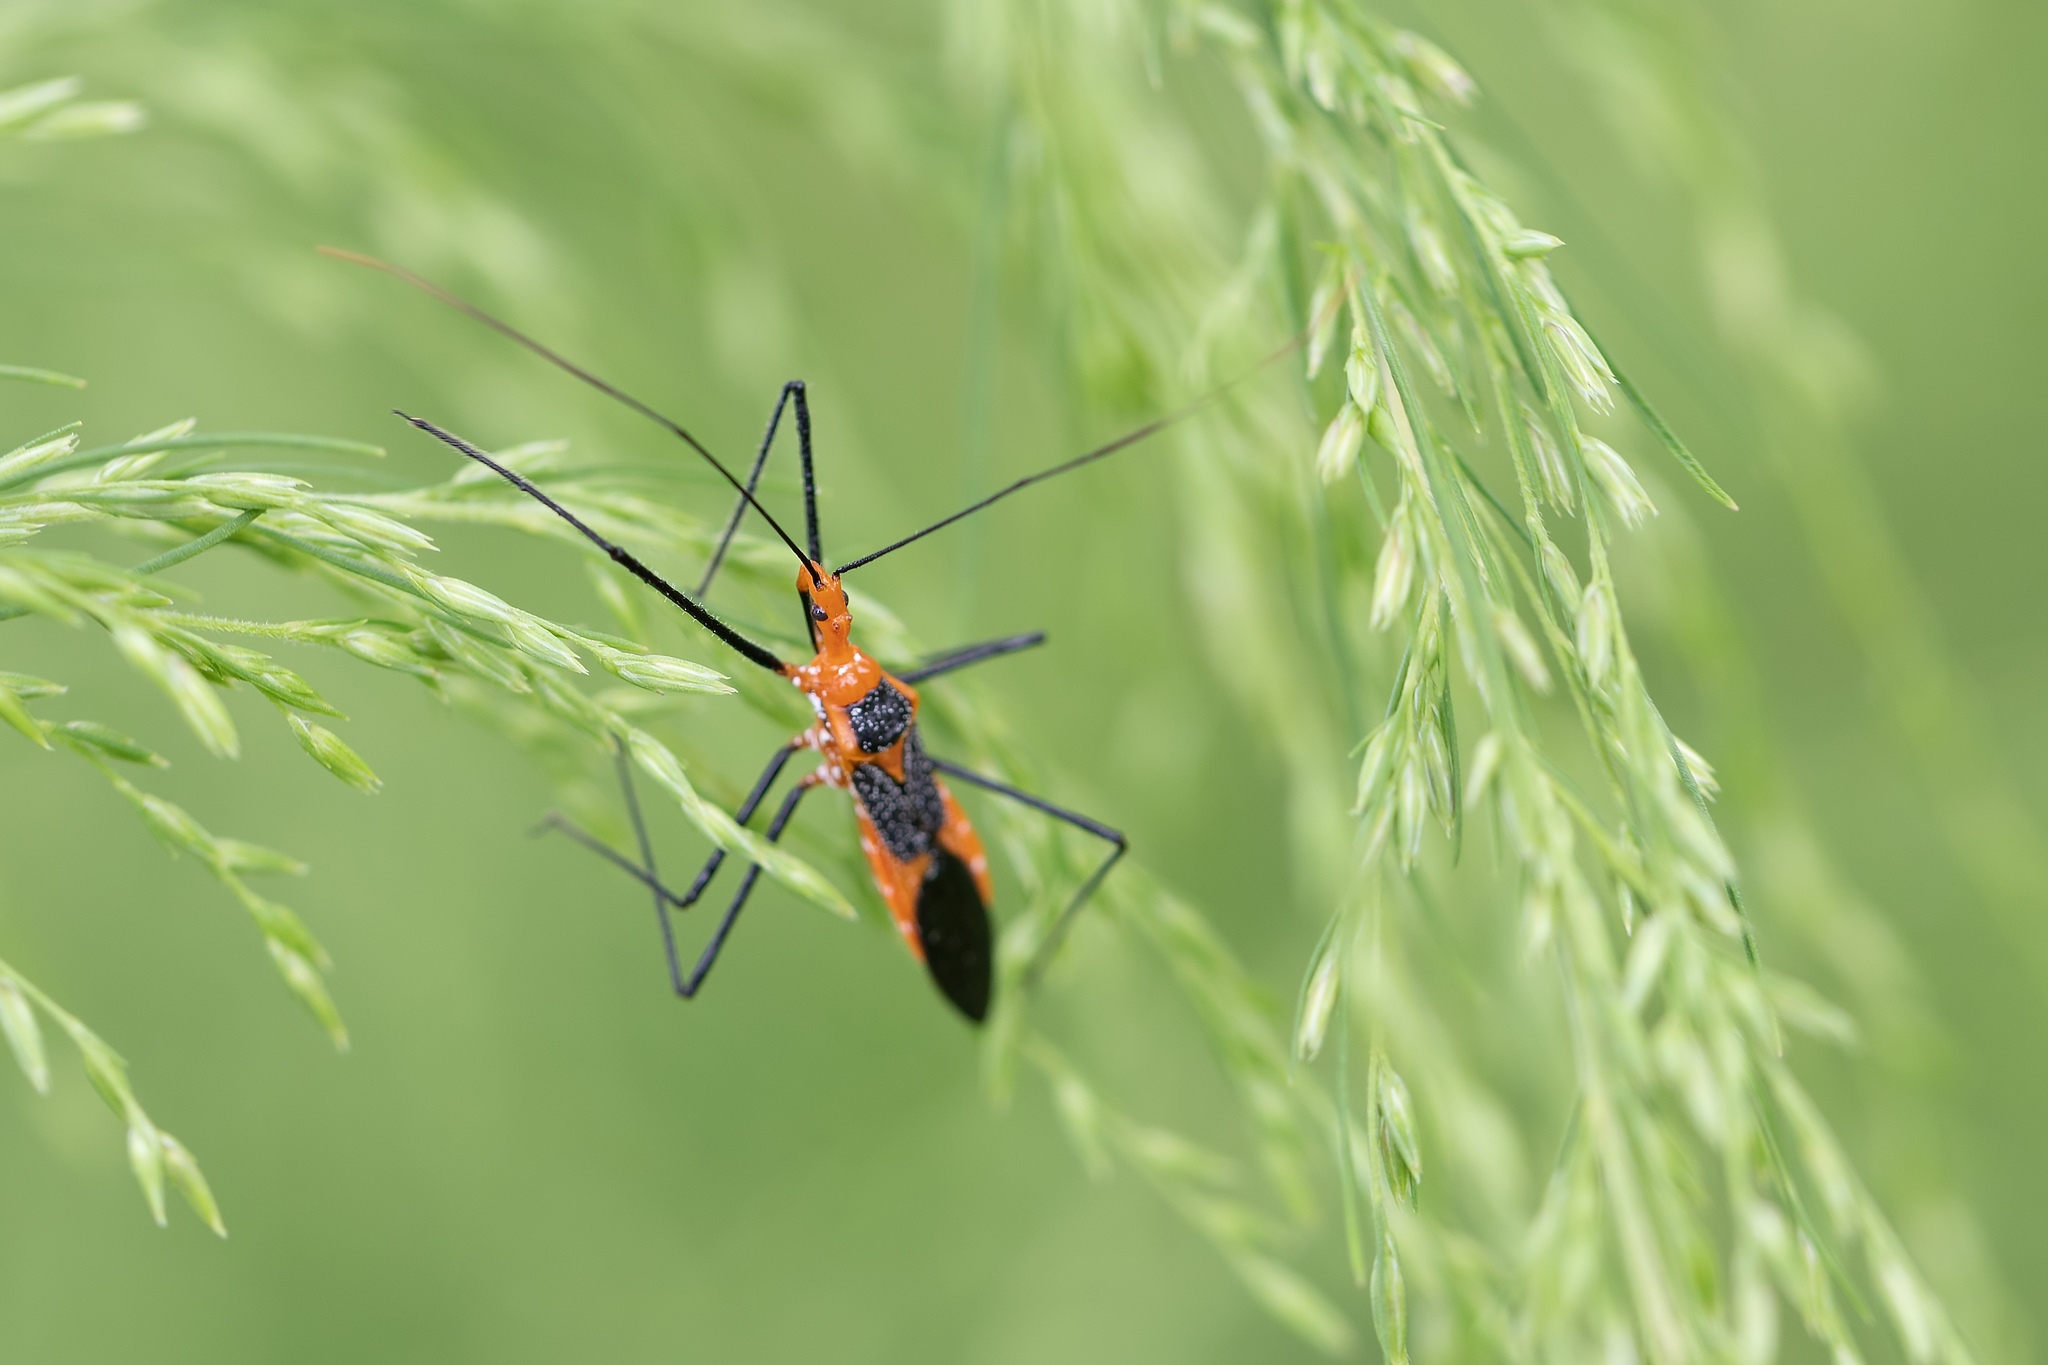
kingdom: Animalia
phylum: Arthropoda
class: Insecta
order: Hemiptera
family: Reduviidae
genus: Zelus
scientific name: Zelus longipes
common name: Milkweed assassin bug
